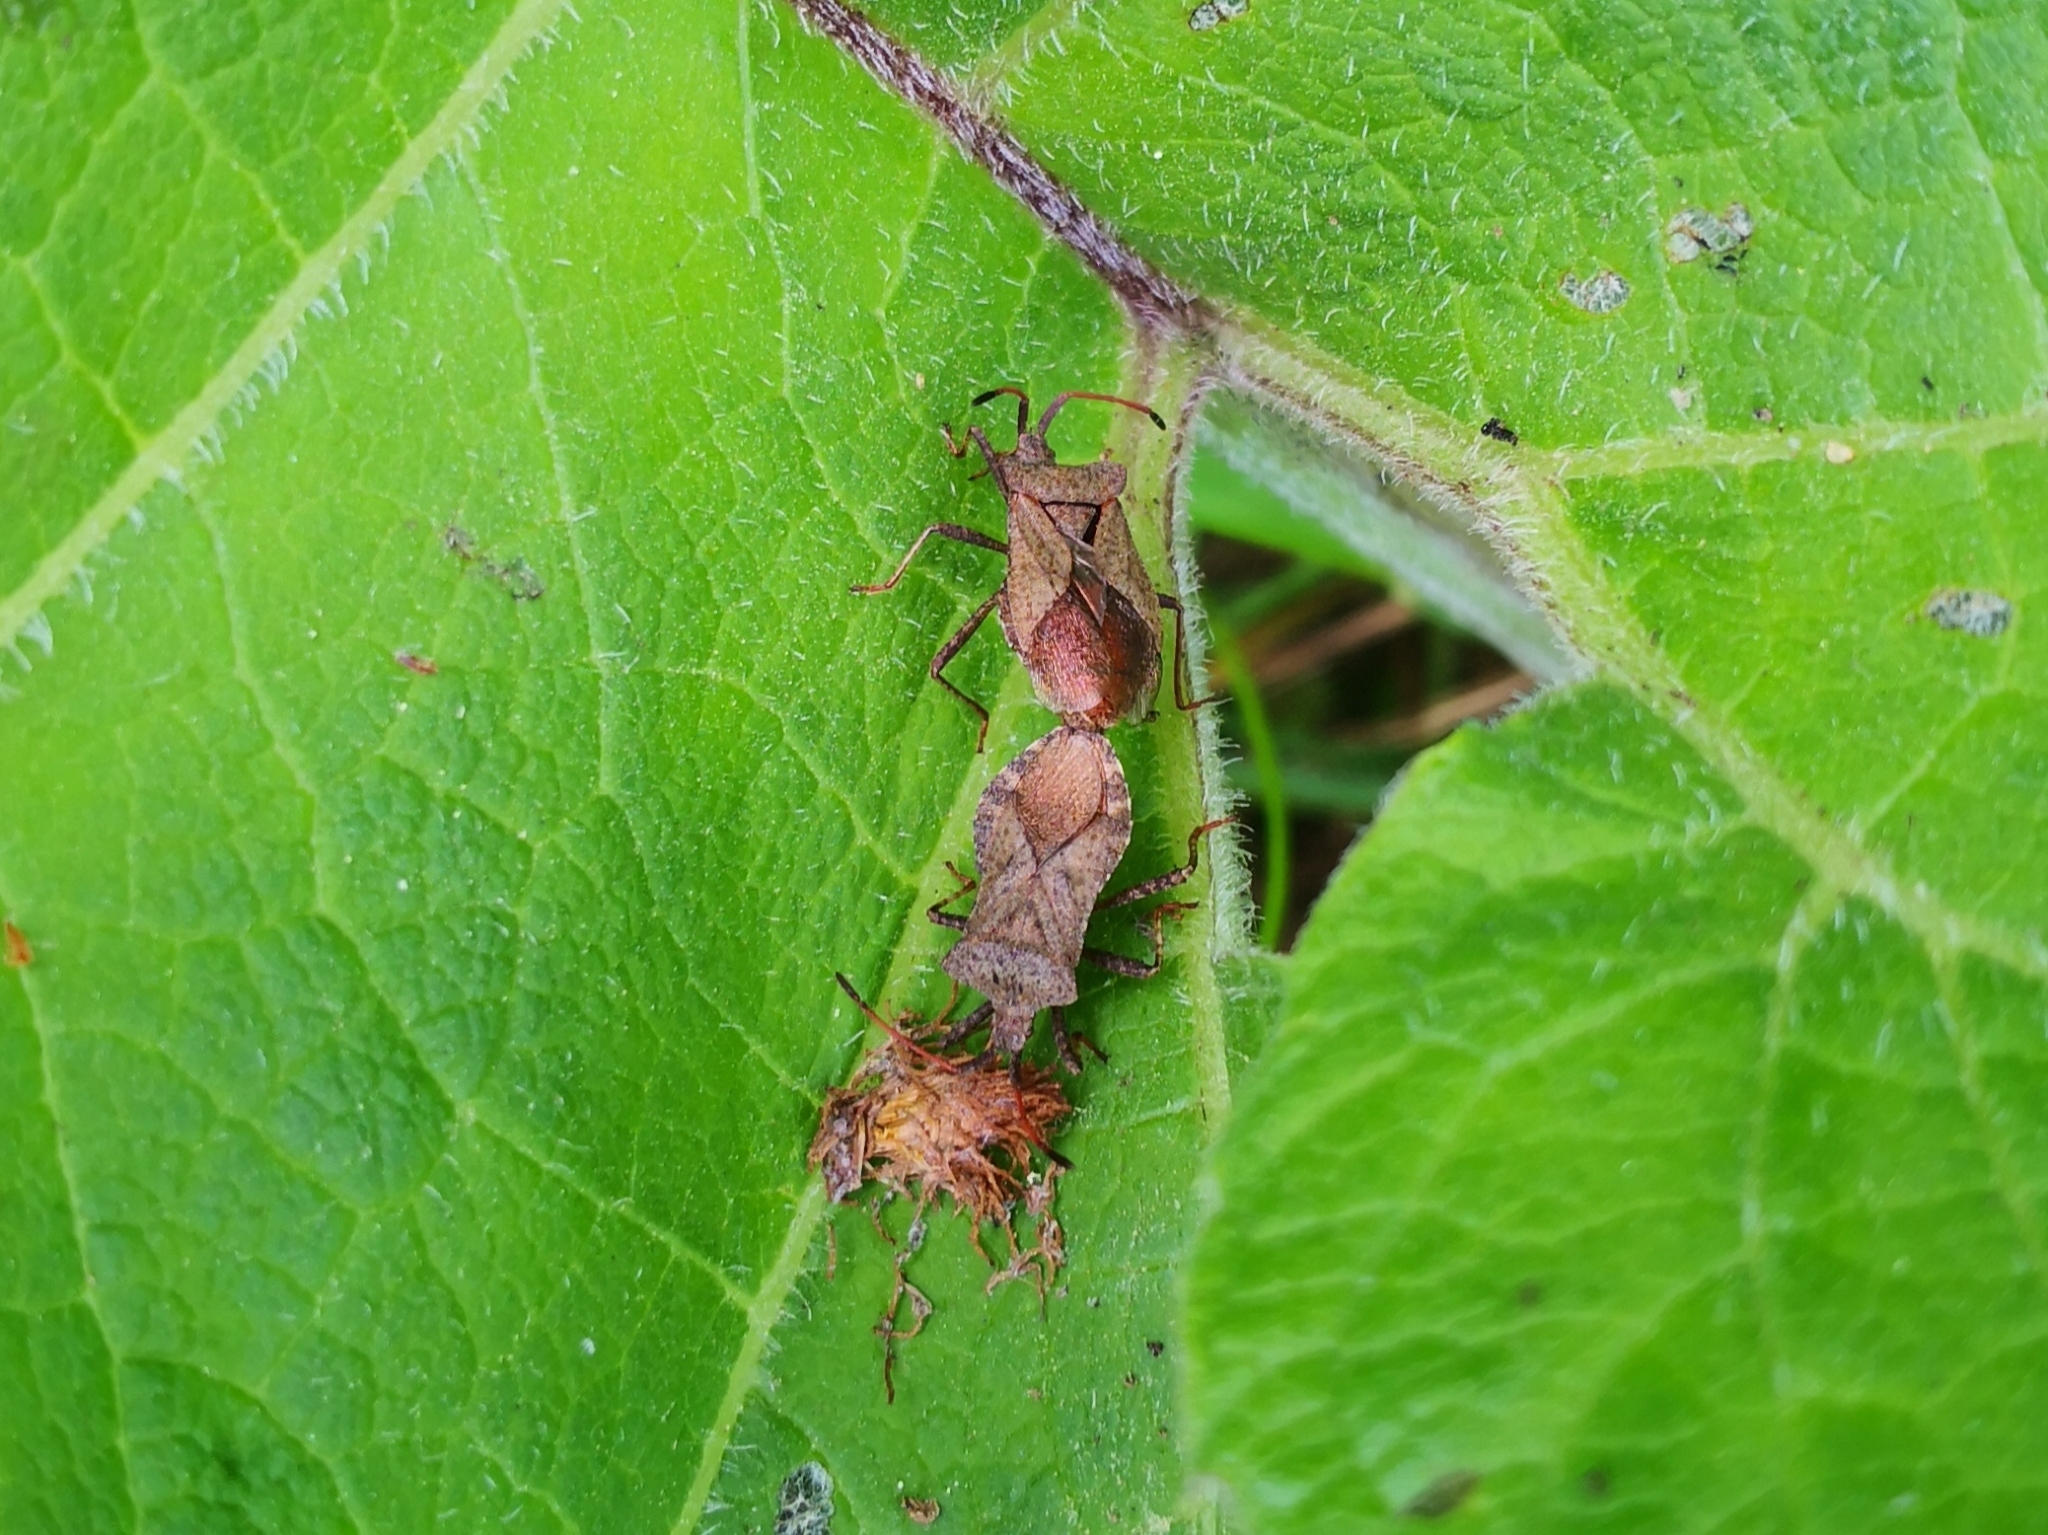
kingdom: Animalia
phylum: Arthropoda
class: Insecta
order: Hemiptera
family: Coreidae
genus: Coreus
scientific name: Coreus marginatus
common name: Dock bug
